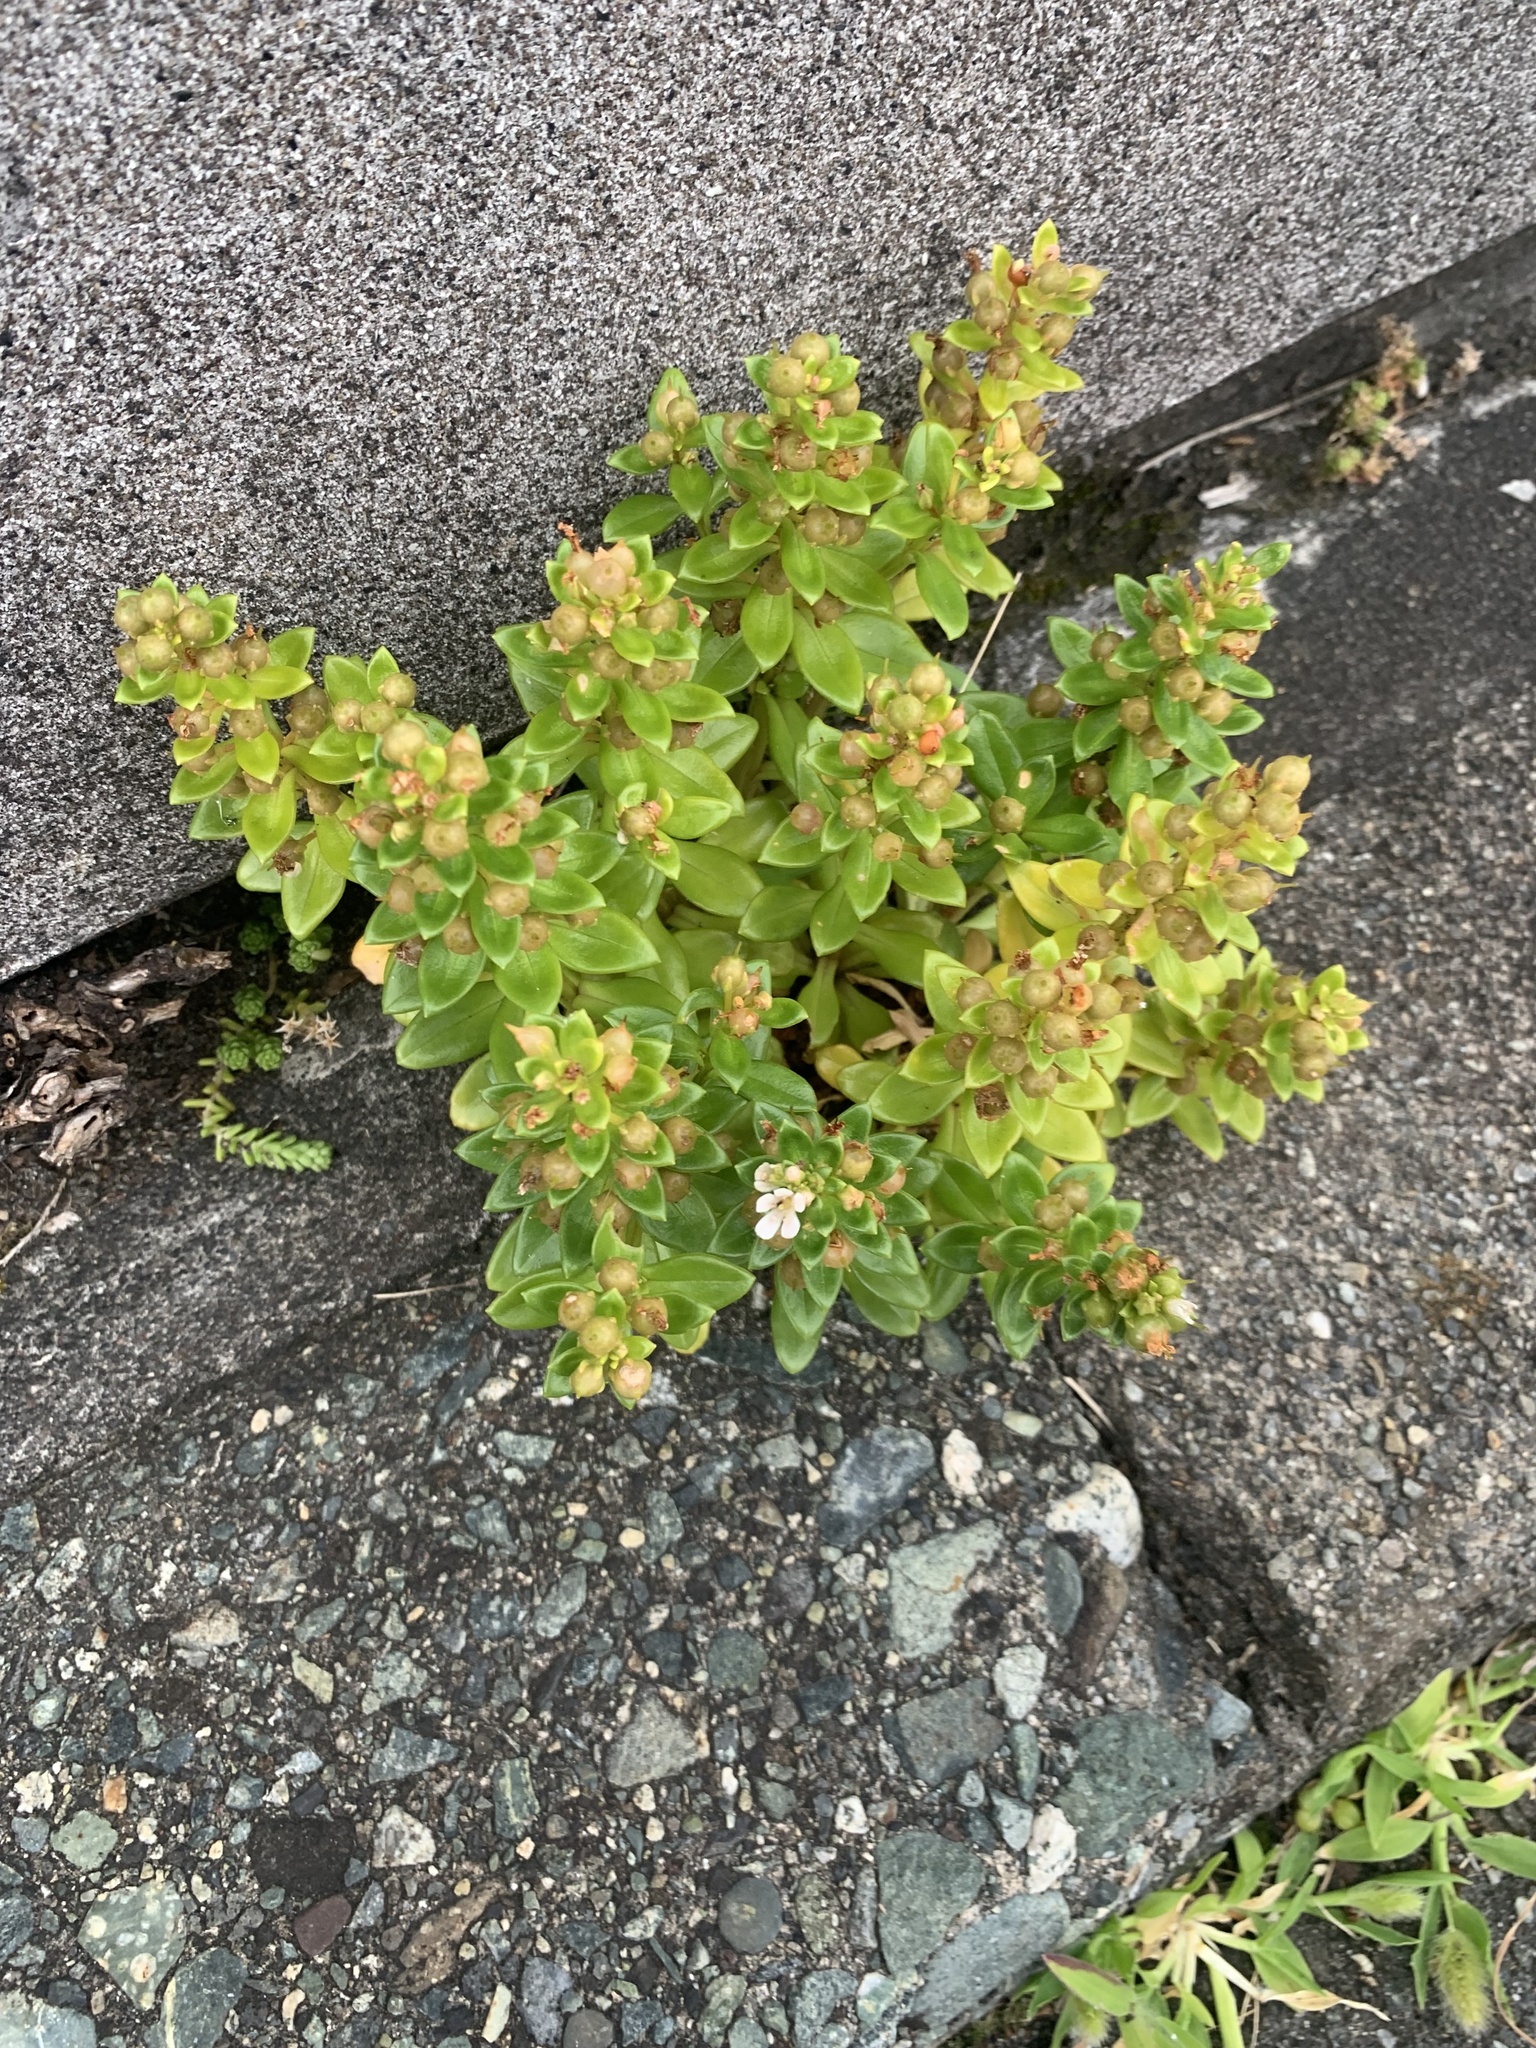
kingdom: Plantae
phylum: Tracheophyta
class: Magnoliopsida
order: Ericales
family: Primulaceae
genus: Lysimachia
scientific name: Lysimachia mauritiana
